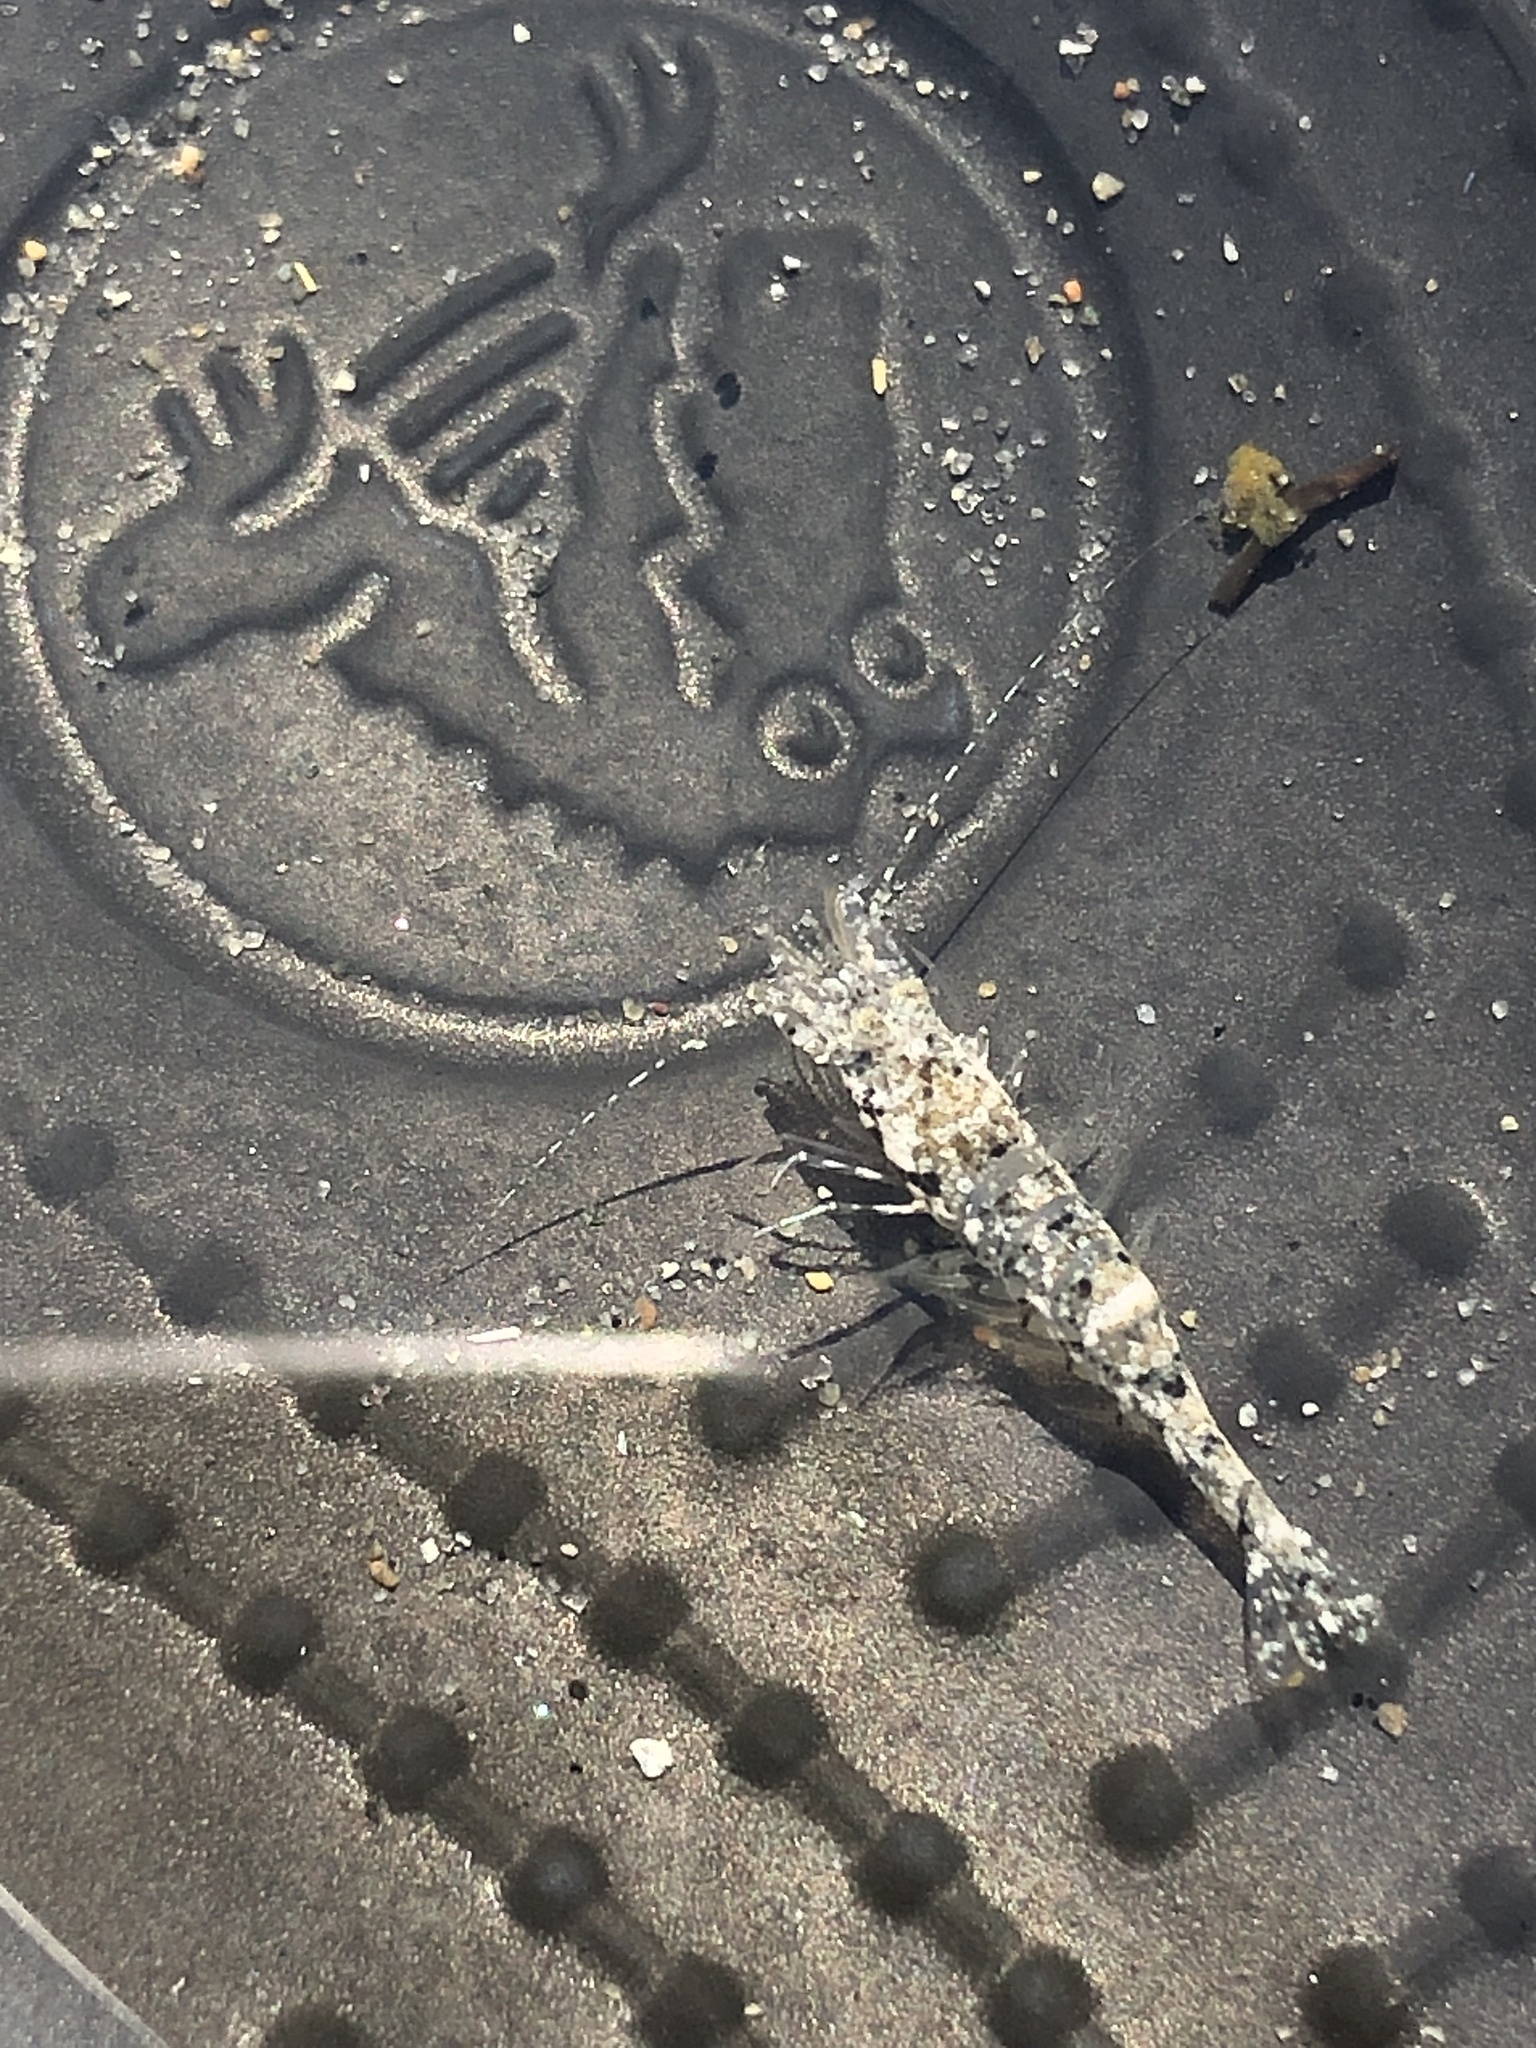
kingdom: Animalia
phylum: Arthropoda
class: Malacostraca
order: Decapoda
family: Crangonidae
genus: Crangon
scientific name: Crangon septemspinosa
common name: Bail shrimp
